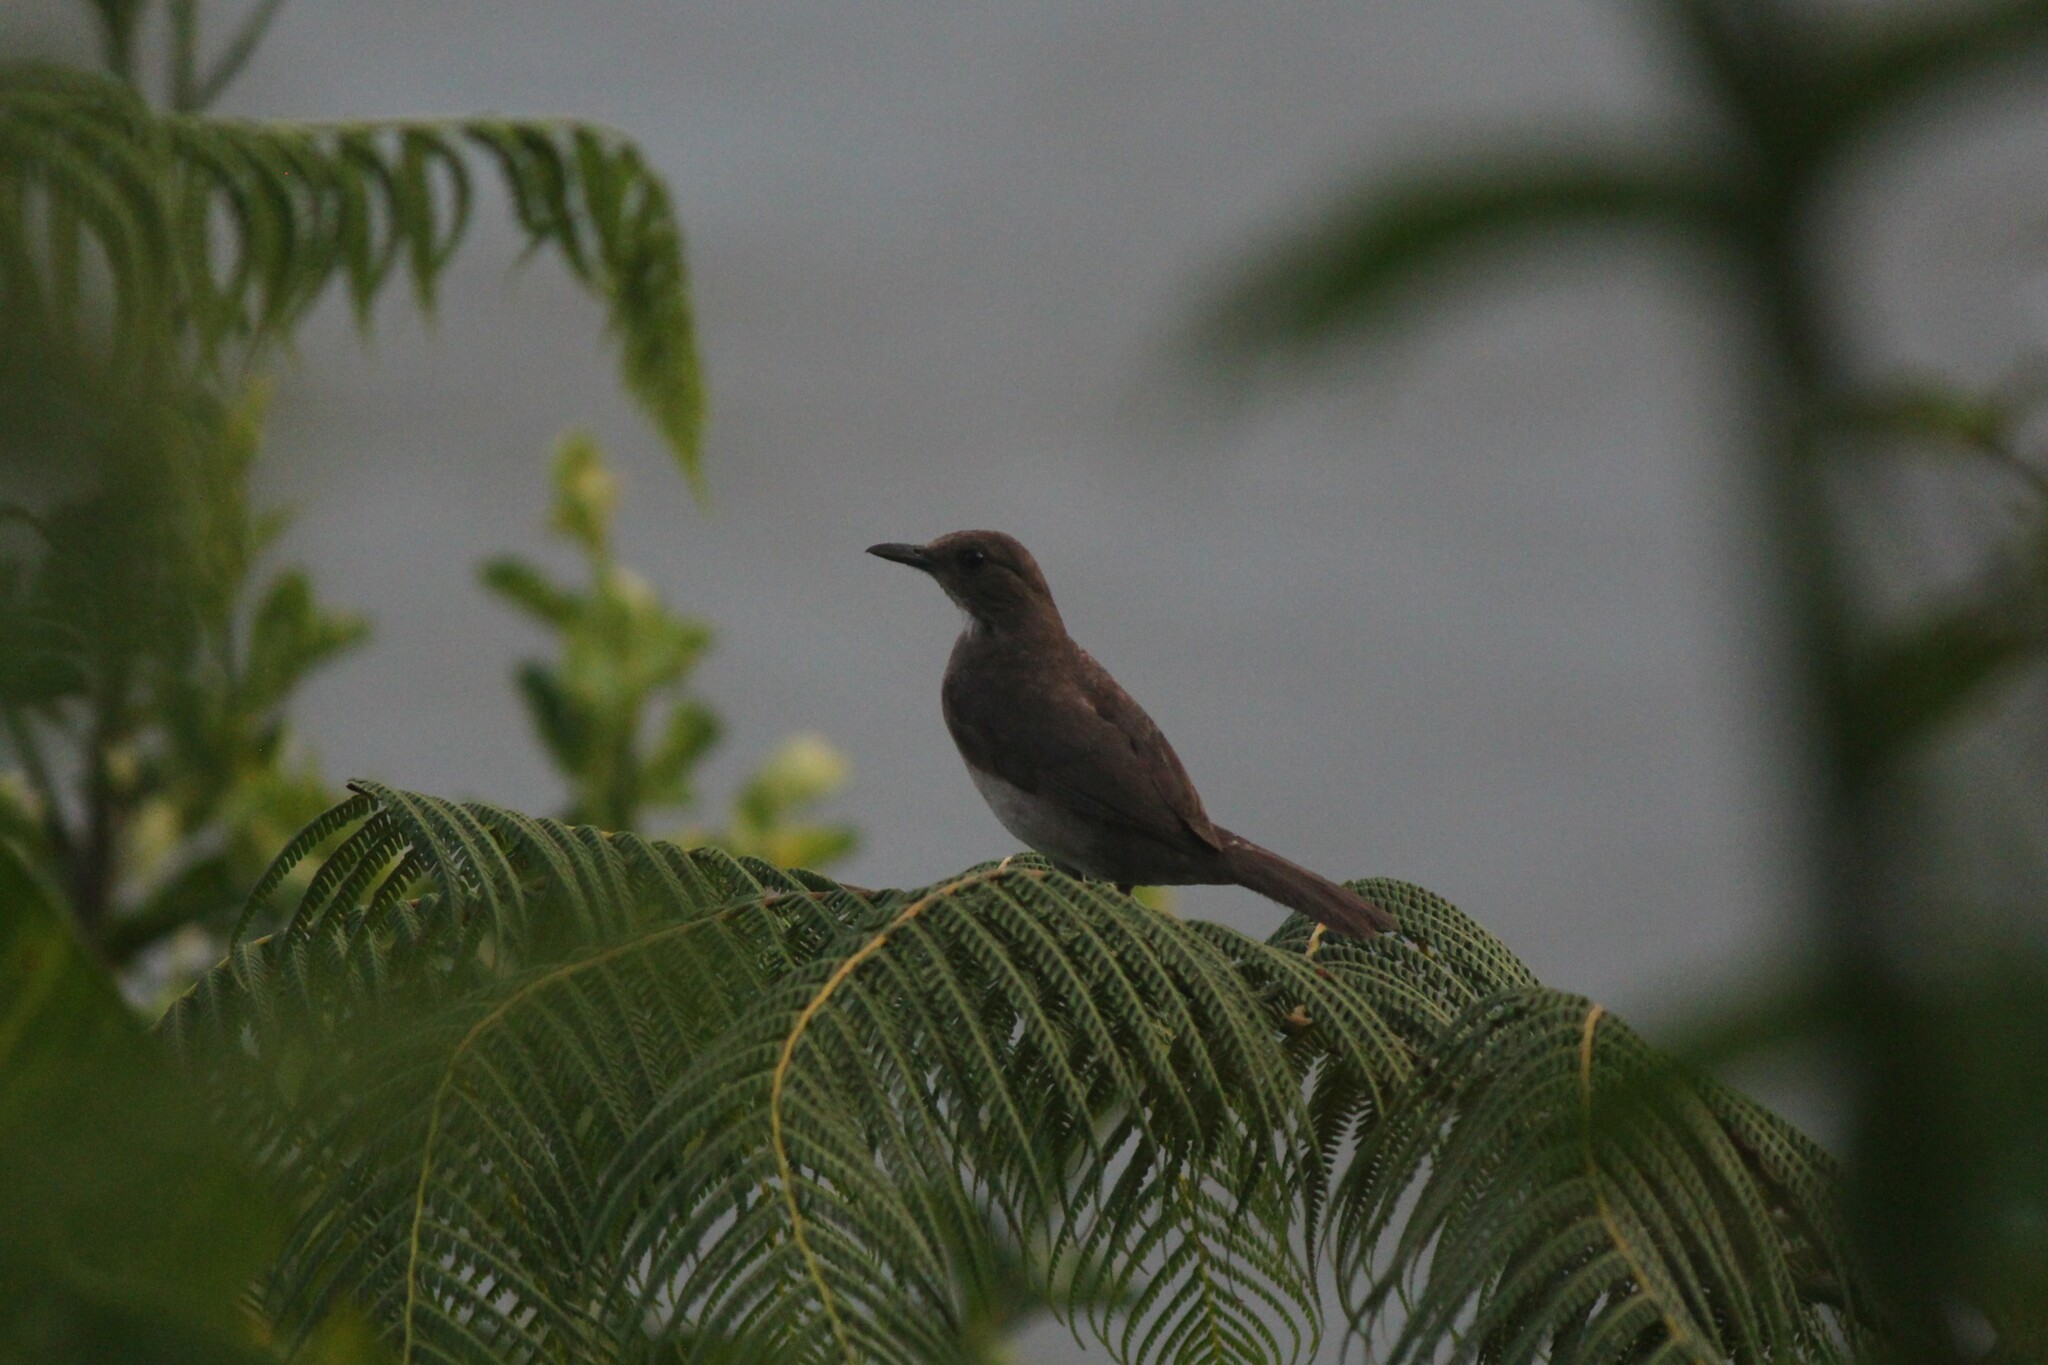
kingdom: Animalia
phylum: Chordata
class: Aves
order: Passeriformes
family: Turdidae
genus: Turdus
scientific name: Turdus ignobilis
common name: Black-billed thrush
